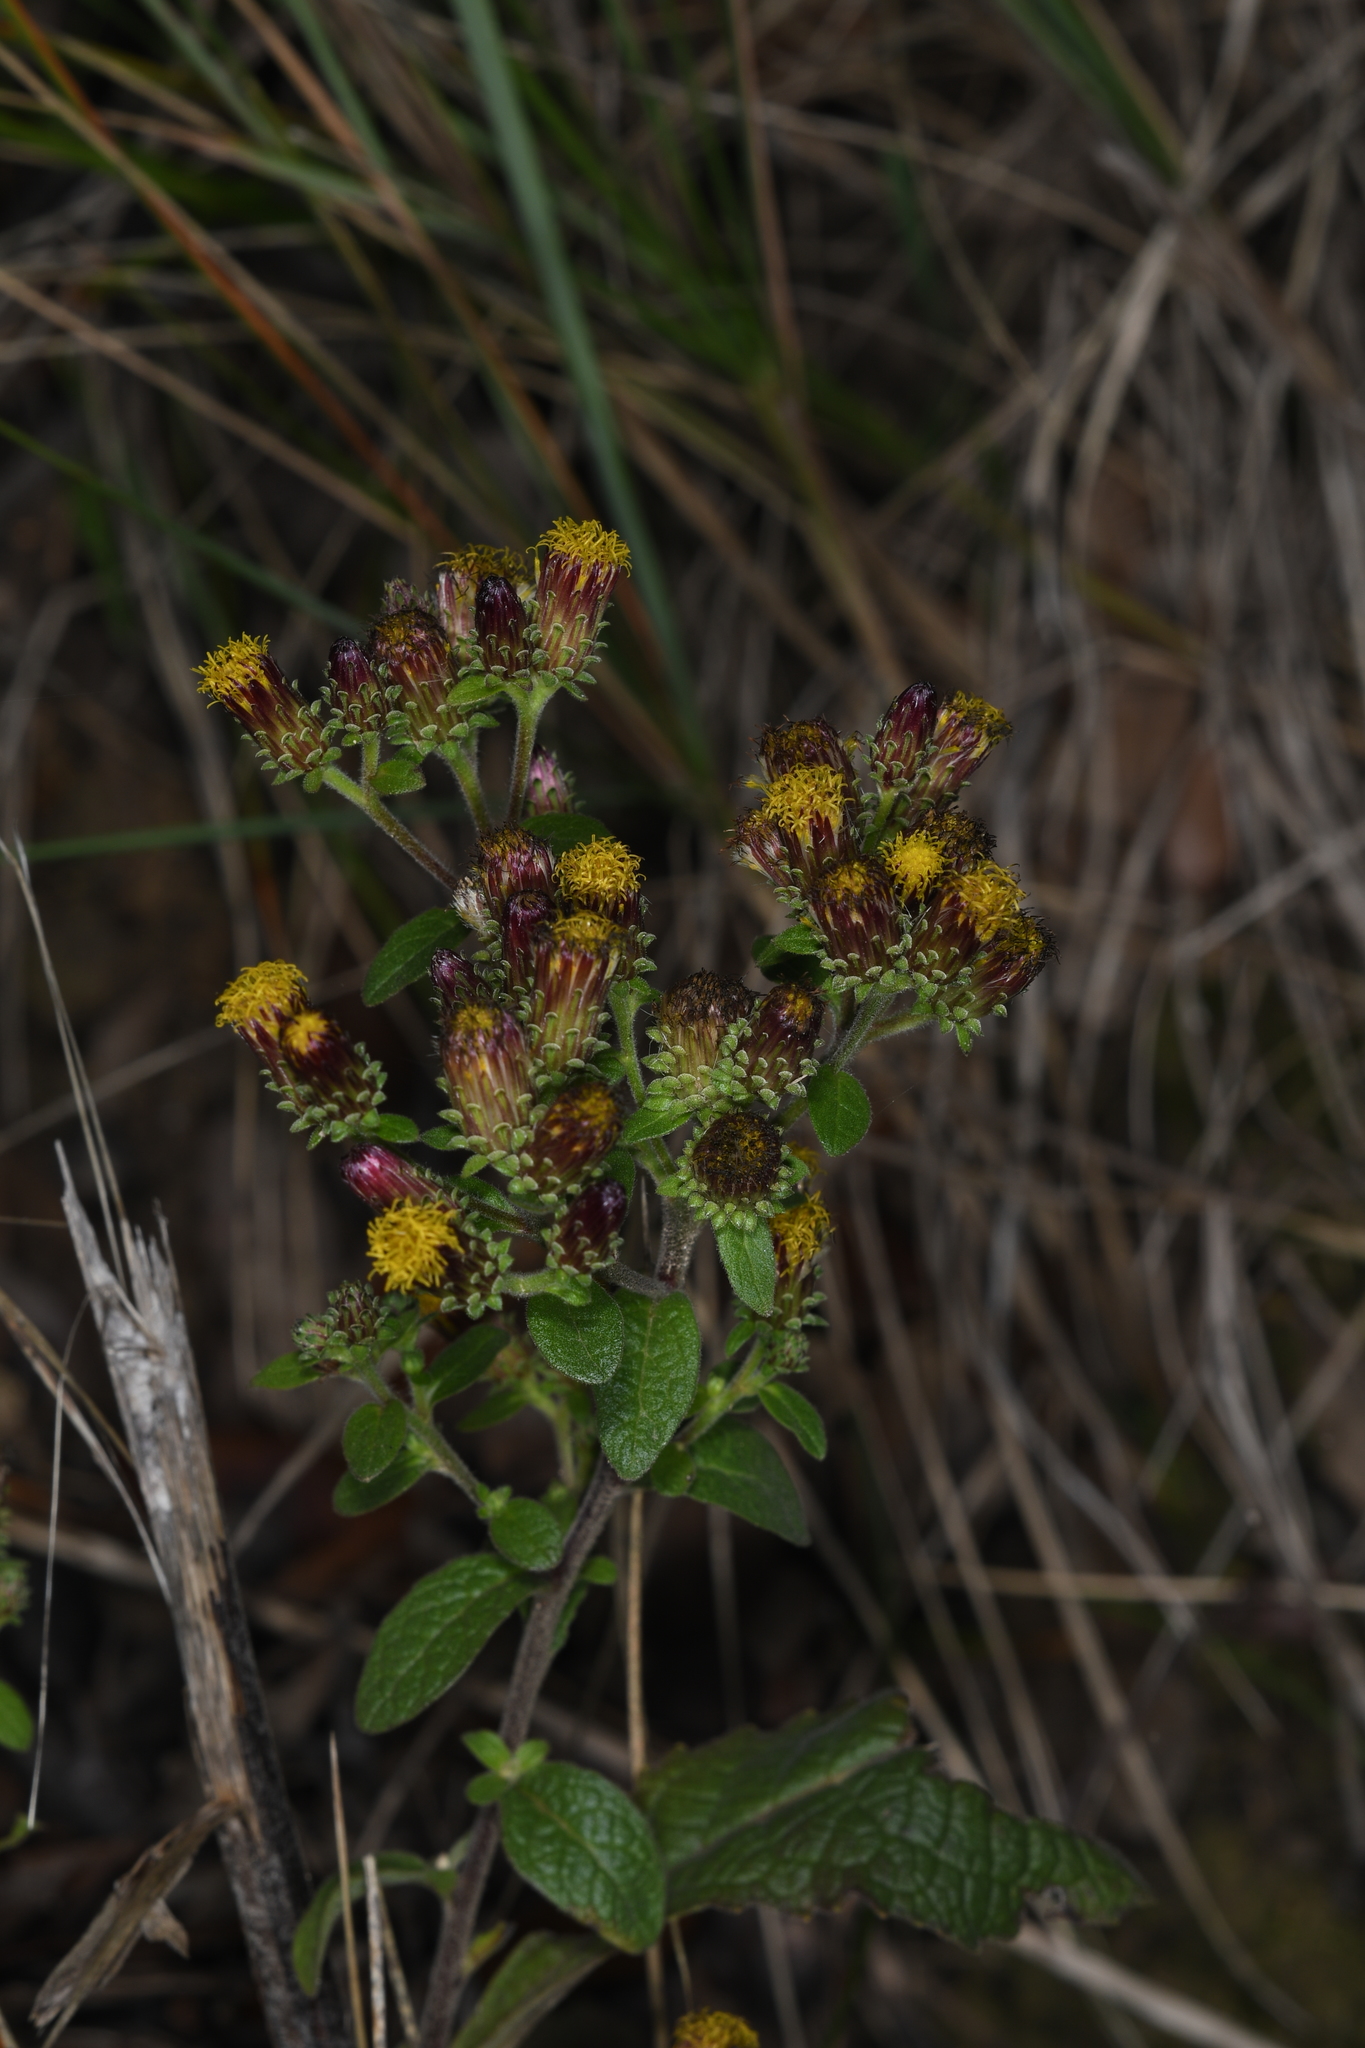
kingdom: Plantae
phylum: Tracheophyta
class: Magnoliopsida
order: Asterales
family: Asteraceae
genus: Pentanema
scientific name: Pentanema squarrosum
